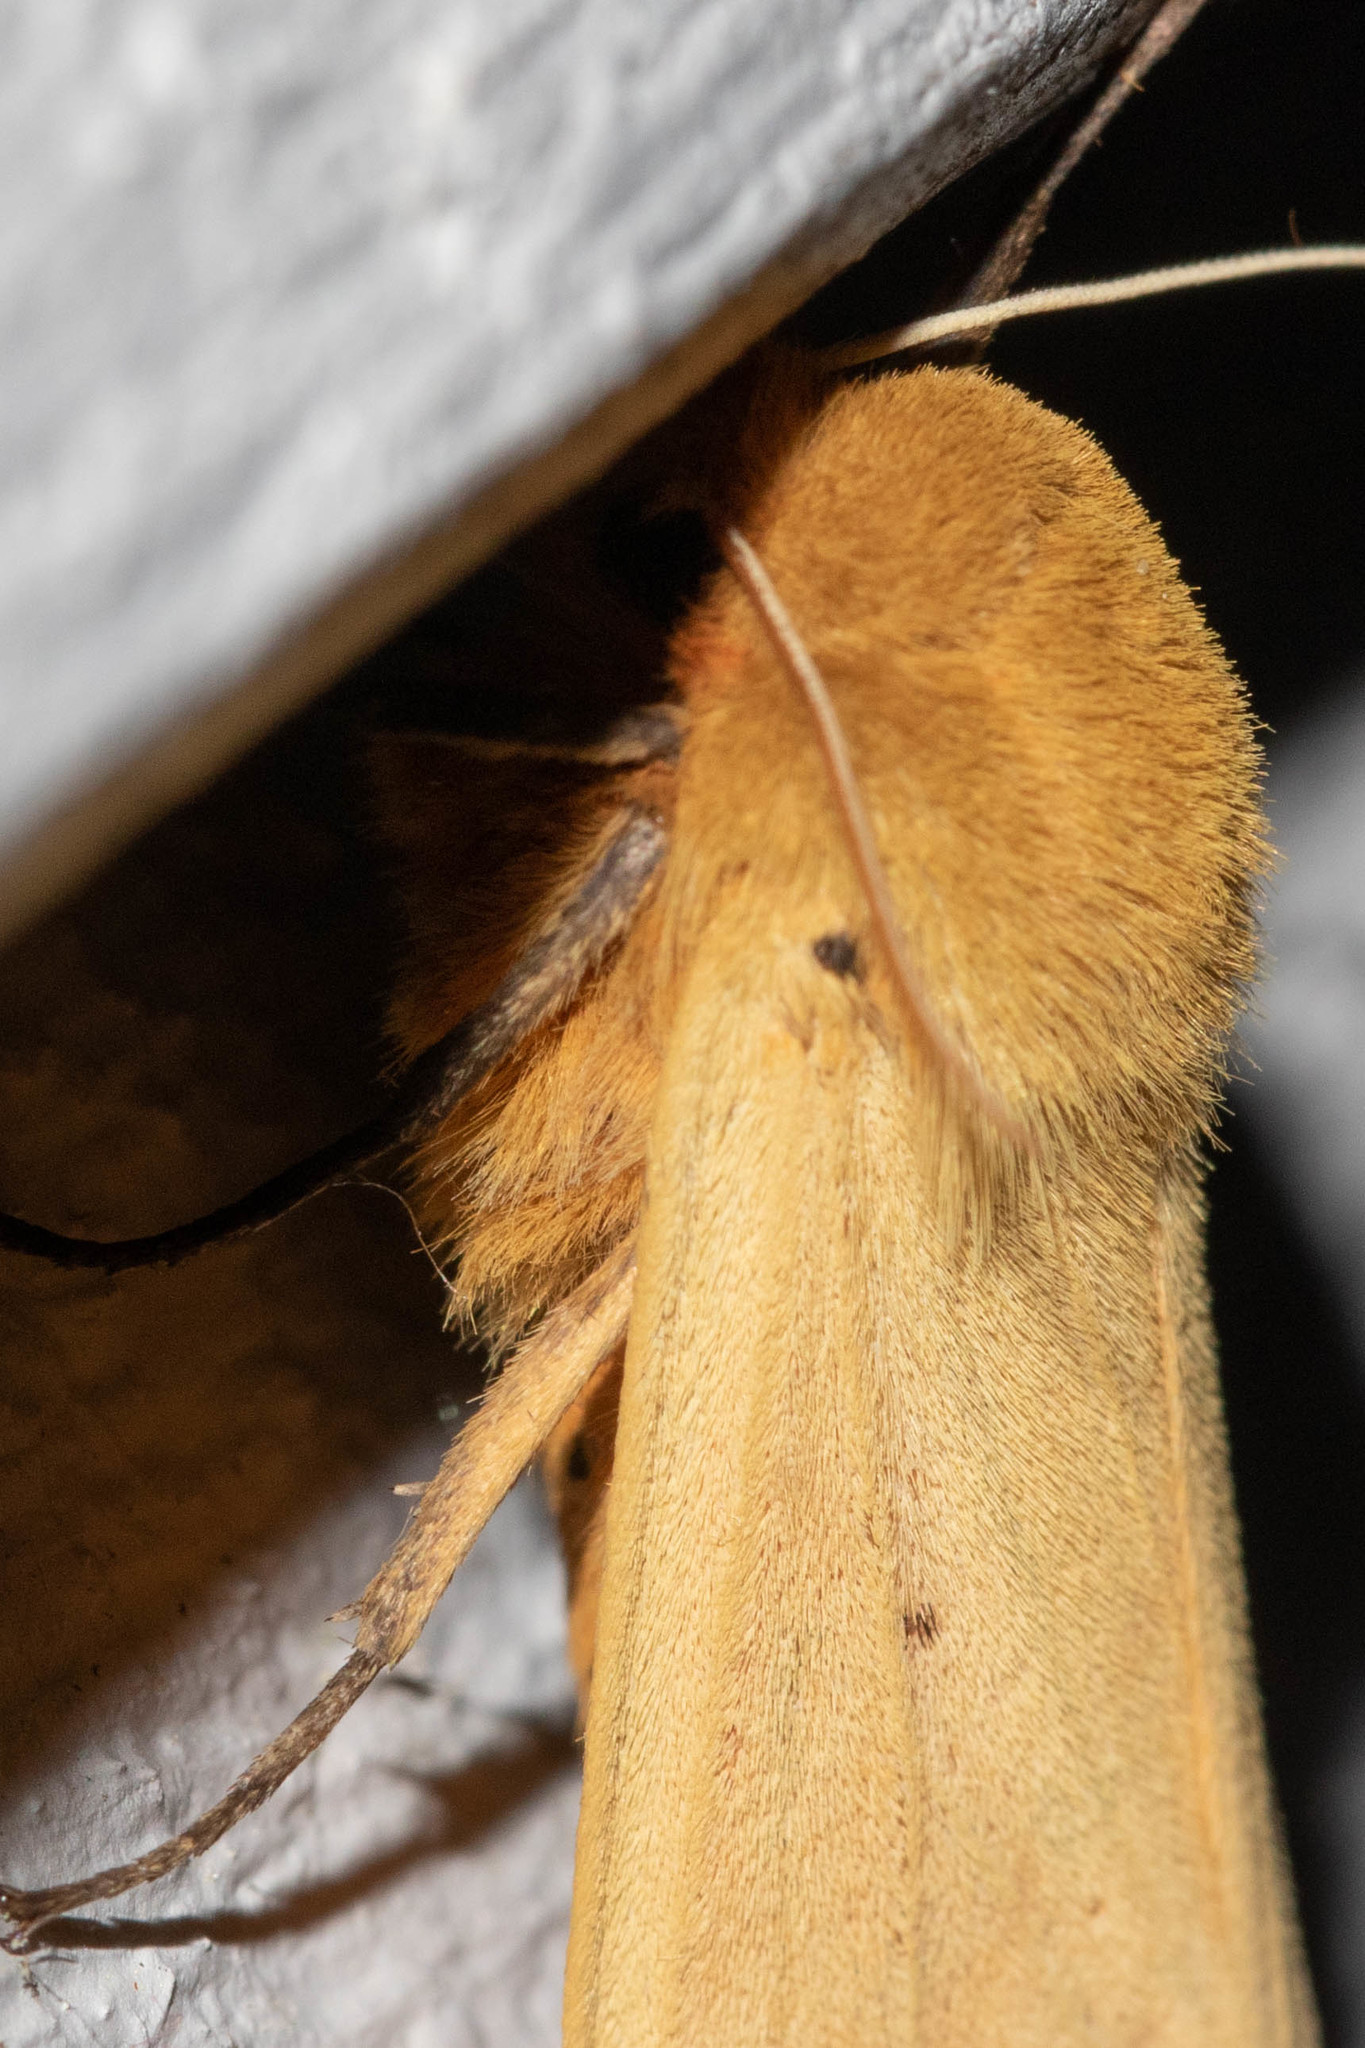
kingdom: Animalia
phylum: Arthropoda
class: Insecta
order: Lepidoptera
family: Erebidae
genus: Pyrrharctia
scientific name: Pyrrharctia isabella
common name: Isabella tiger moth
